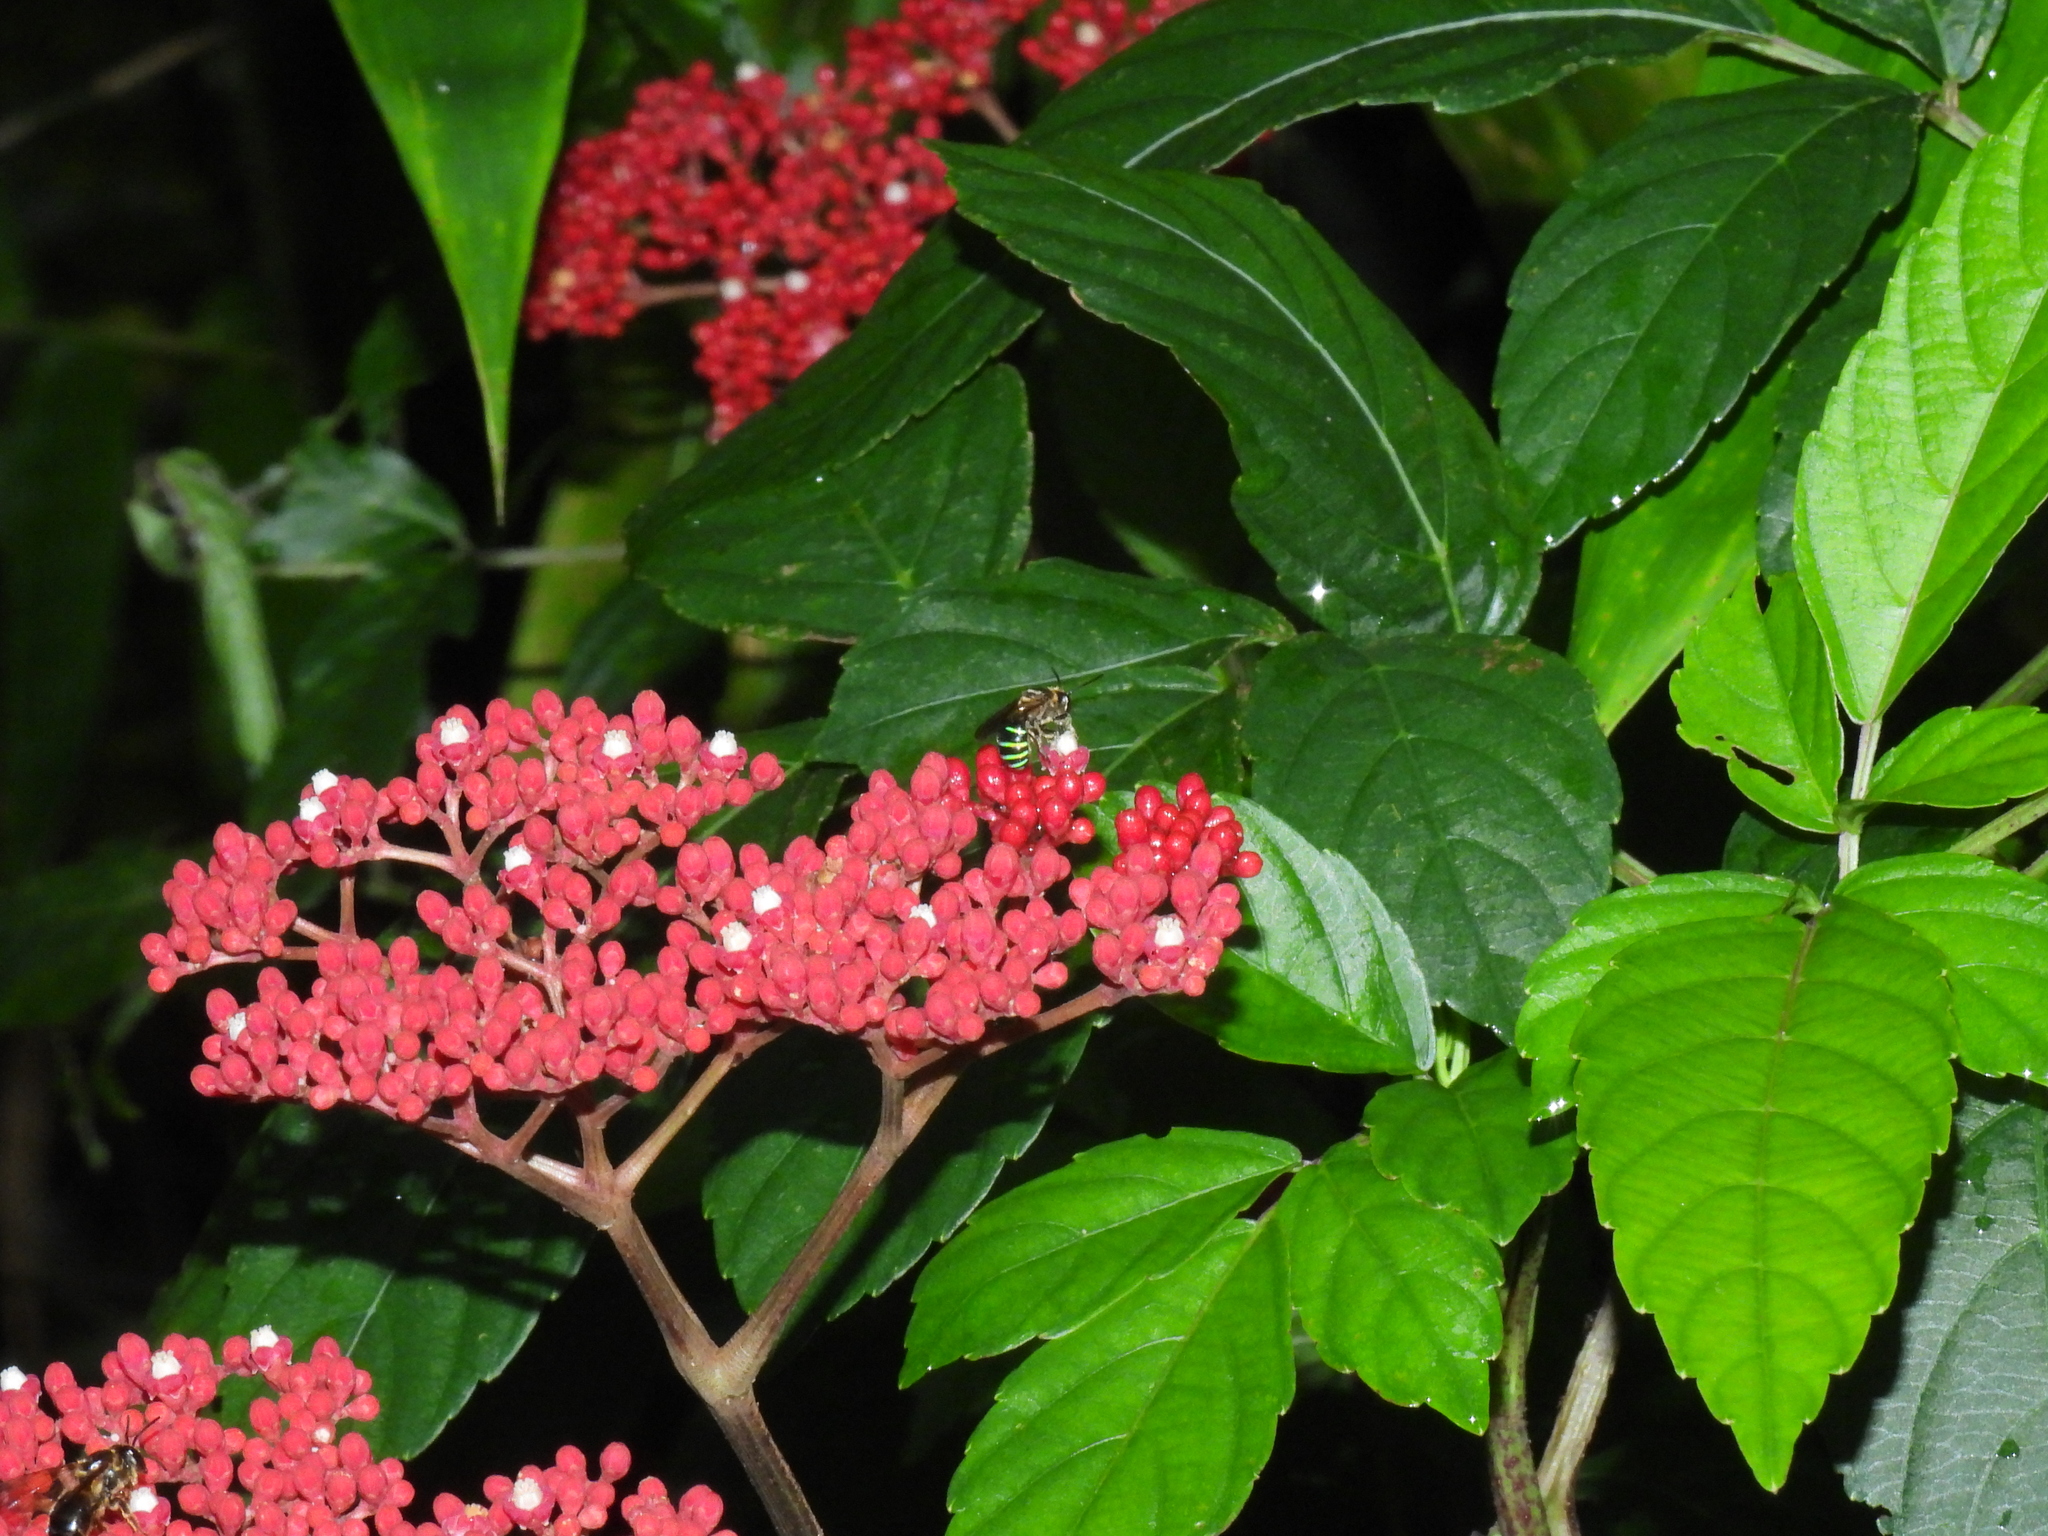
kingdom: Animalia
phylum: Arthropoda
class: Insecta
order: Hymenoptera
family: Halictidae
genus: Nomia
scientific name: Nomia strigata
